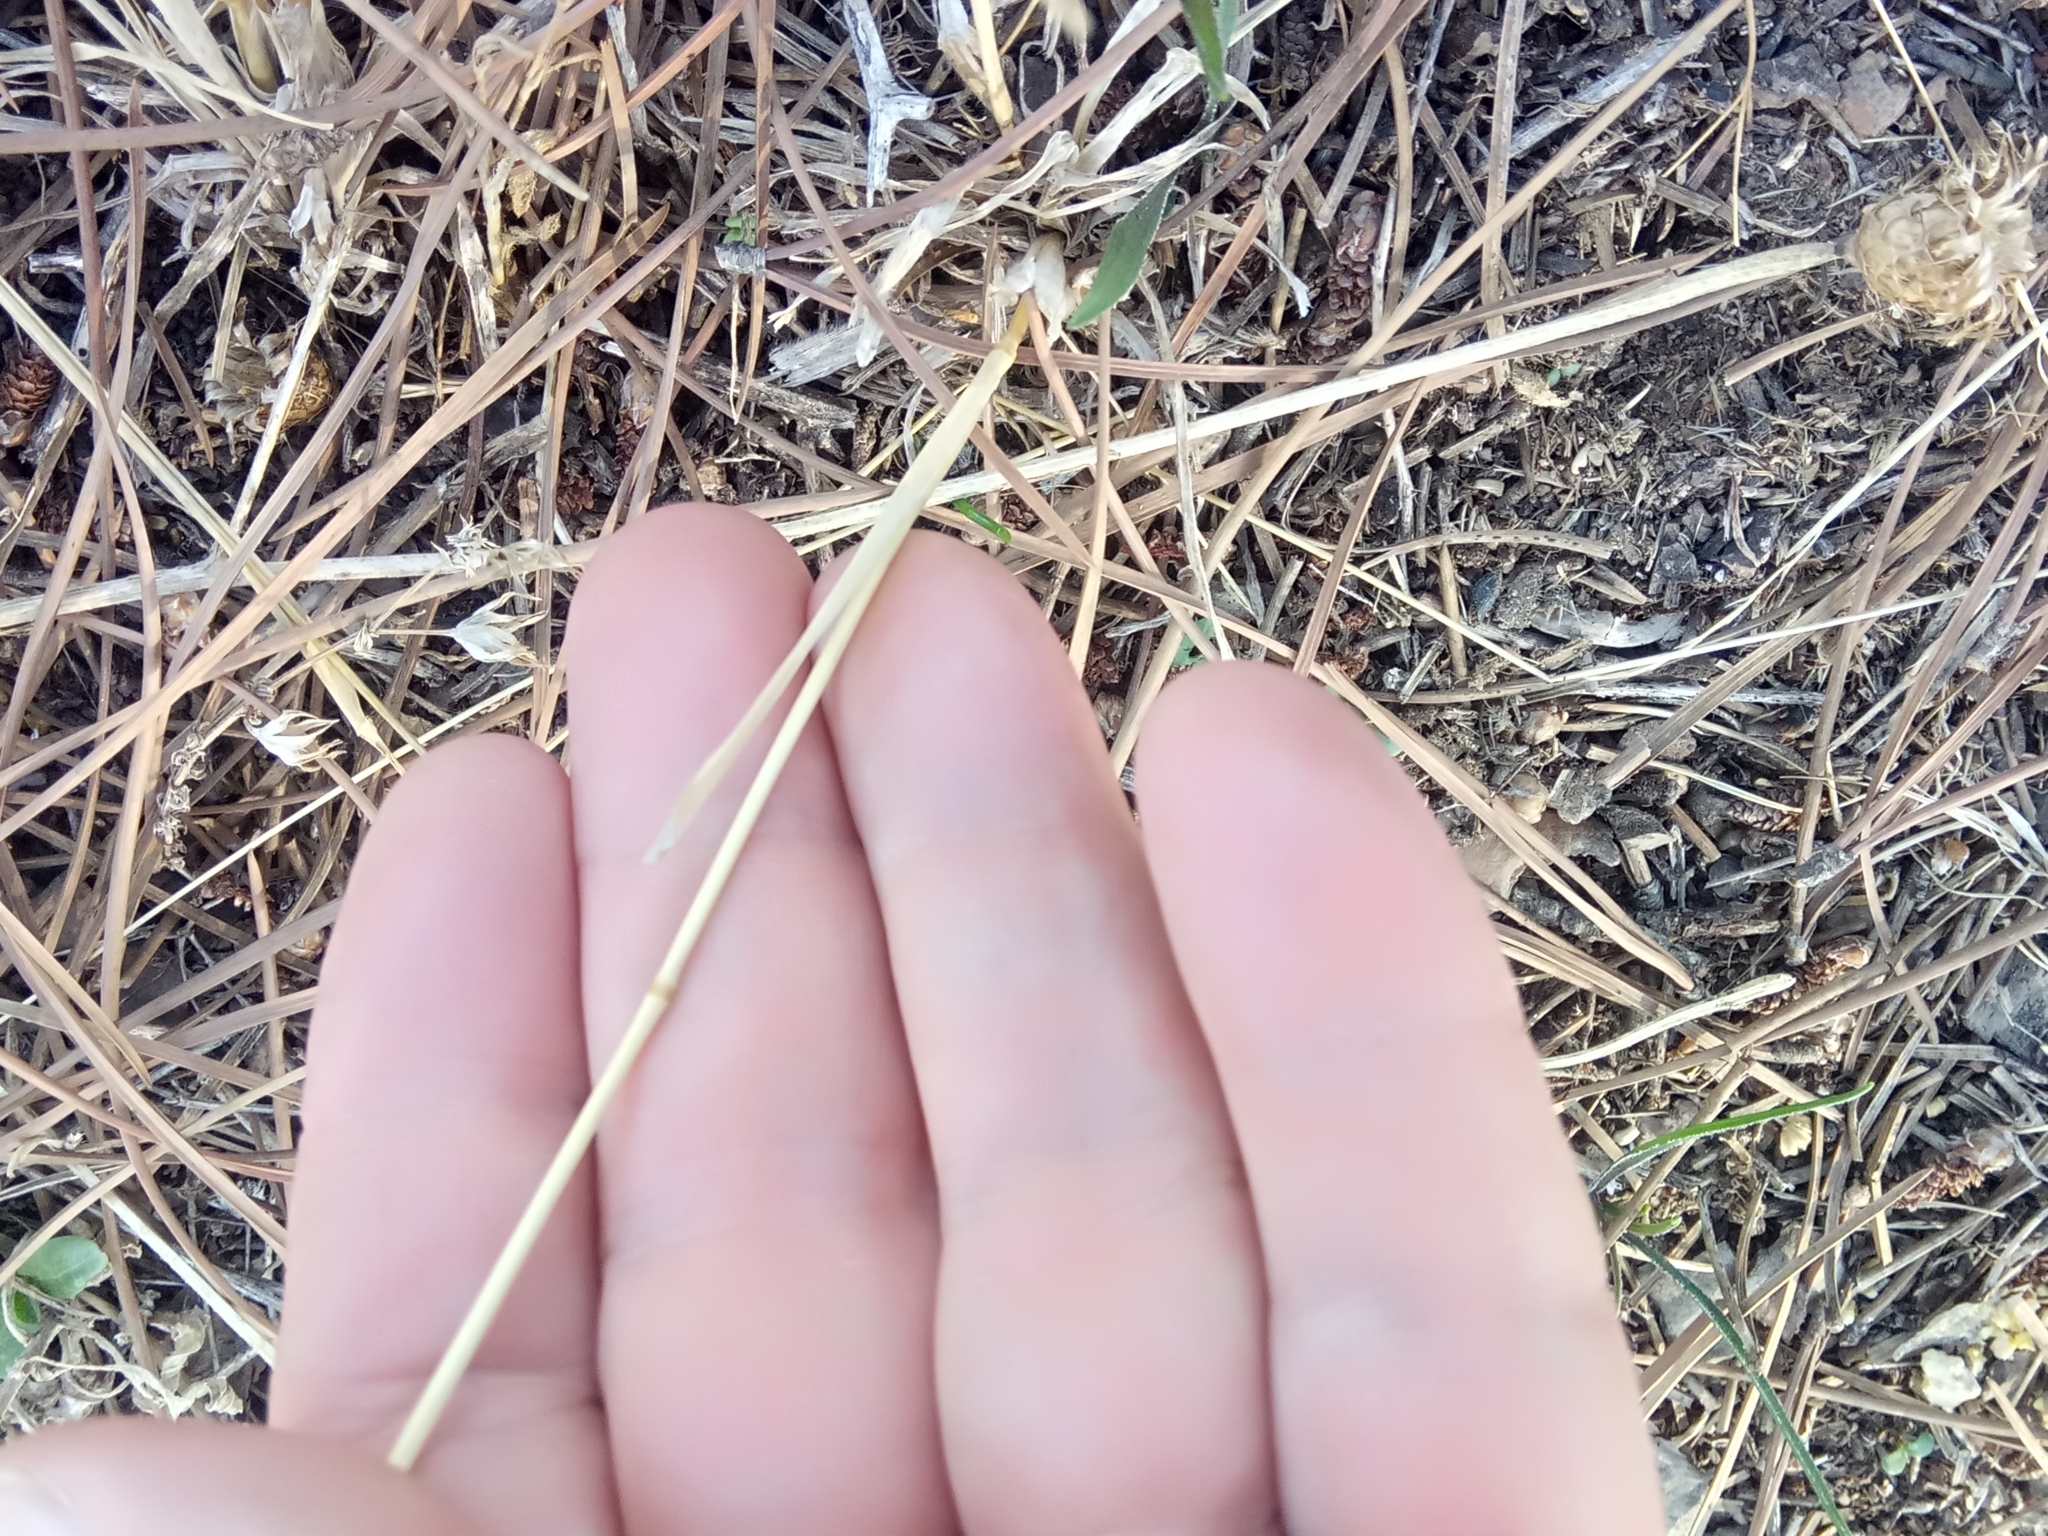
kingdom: Plantae
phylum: Tracheophyta
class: Liliopsida
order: Poales
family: Poaceae
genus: Avena
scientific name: Avena barbata
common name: Slender oat
